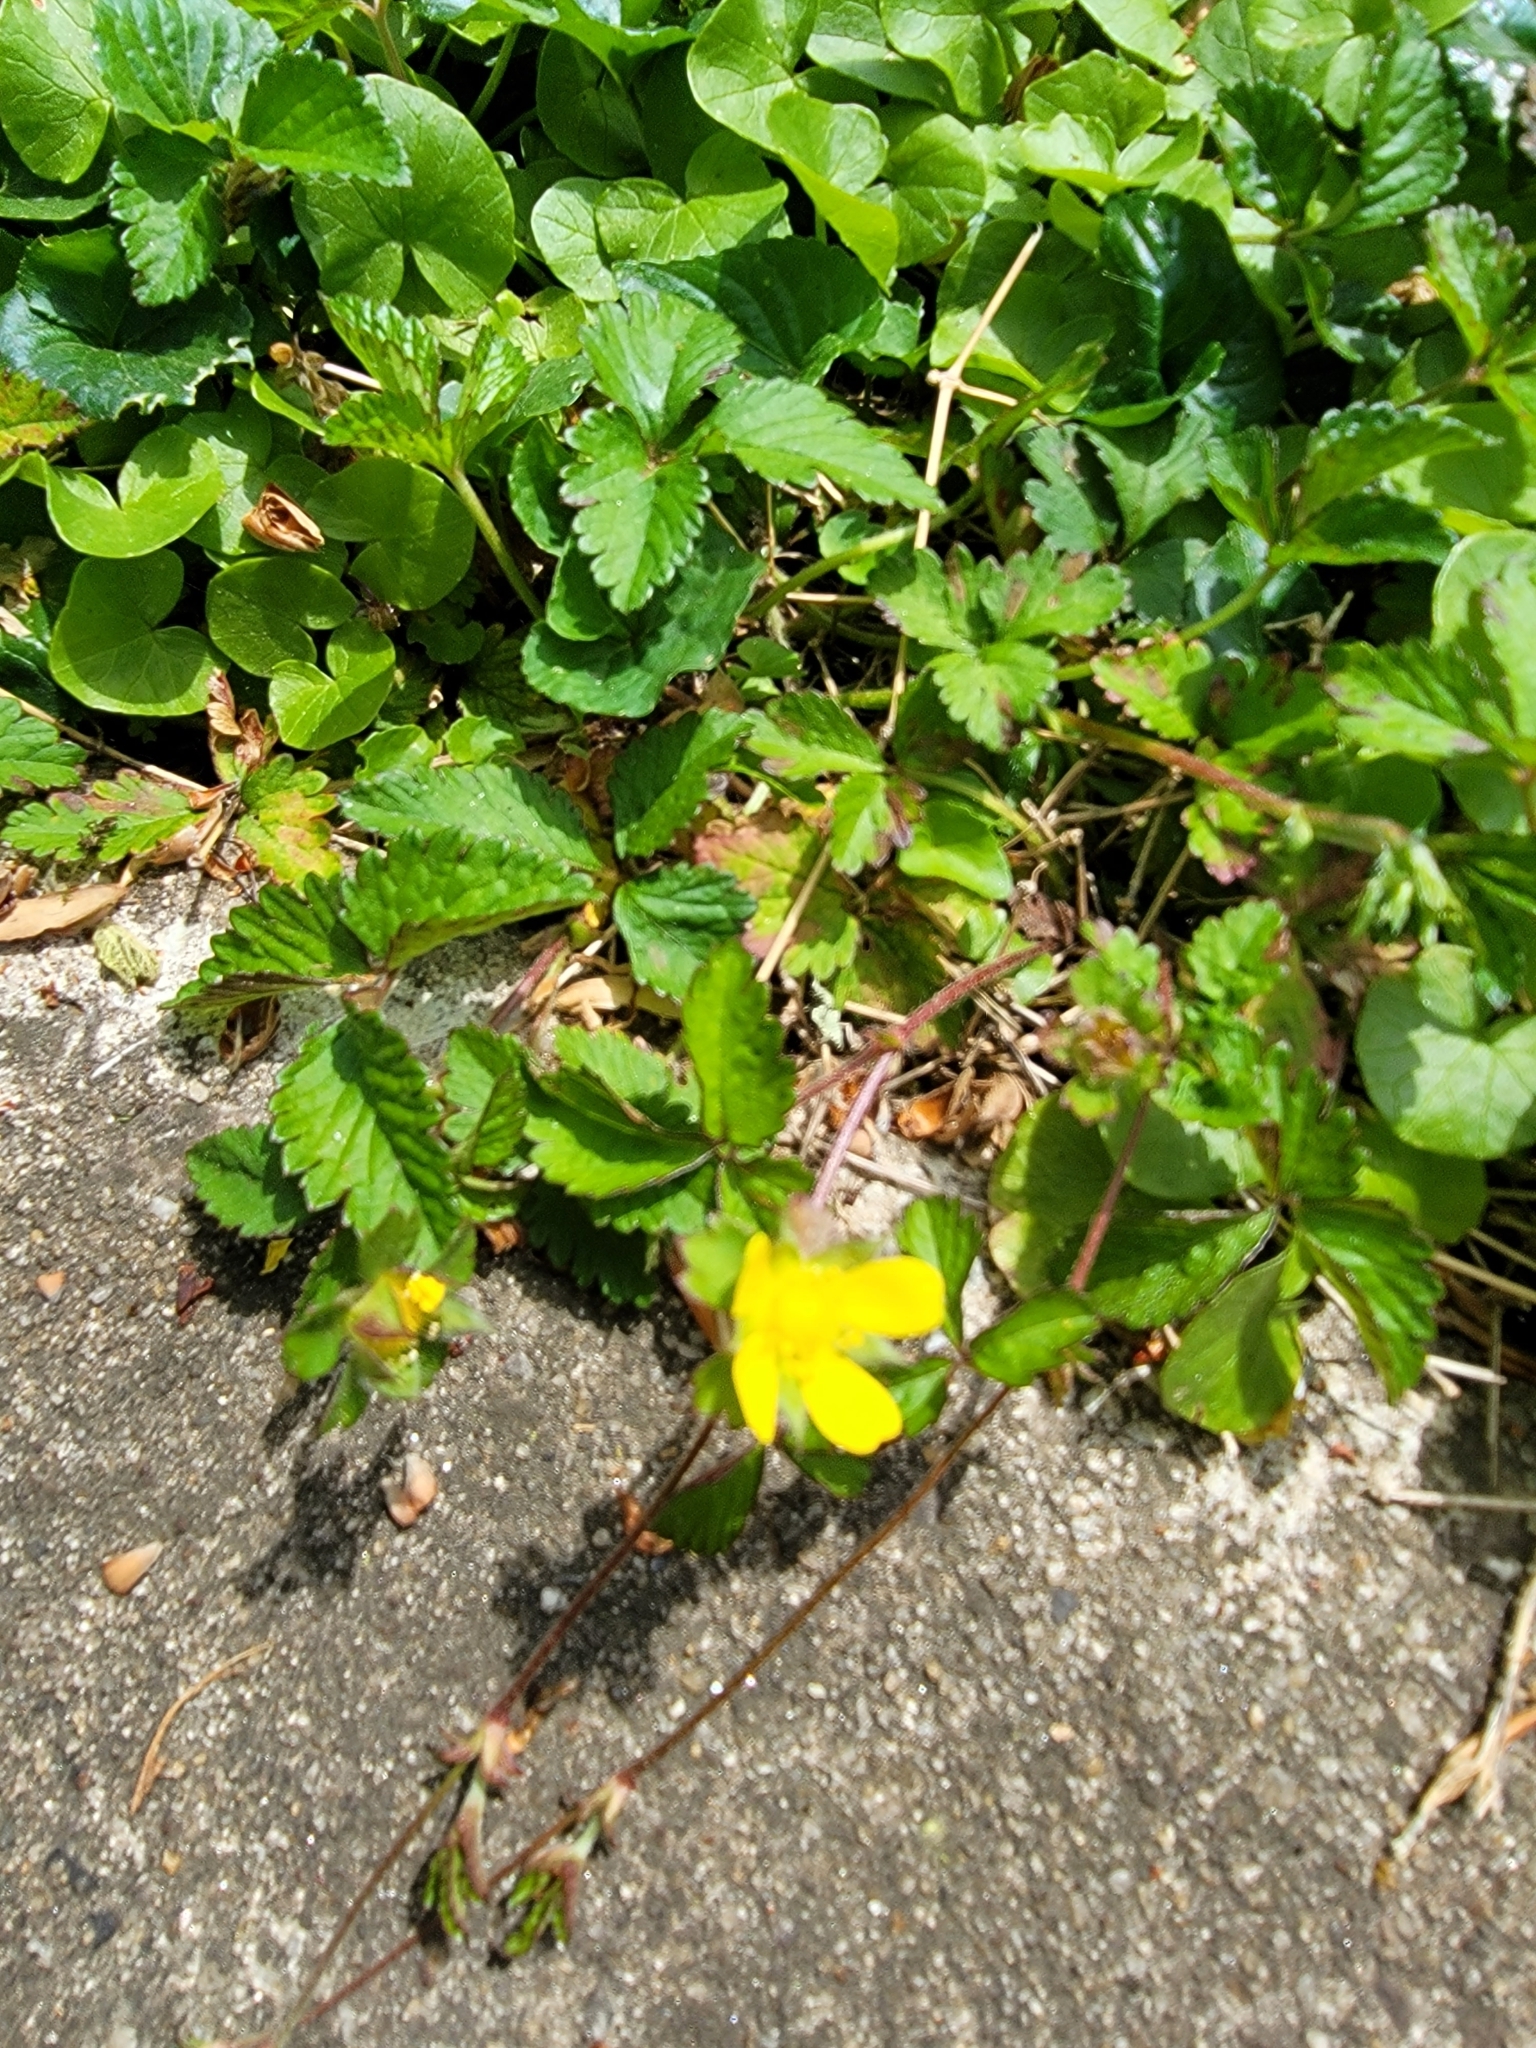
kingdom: Plantae
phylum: Tracheophyta
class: Magnoliopsida
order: Rosales
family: Rosaceae
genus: Potentilla
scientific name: Potentilla indica
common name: Yellow-flowered strawberry
